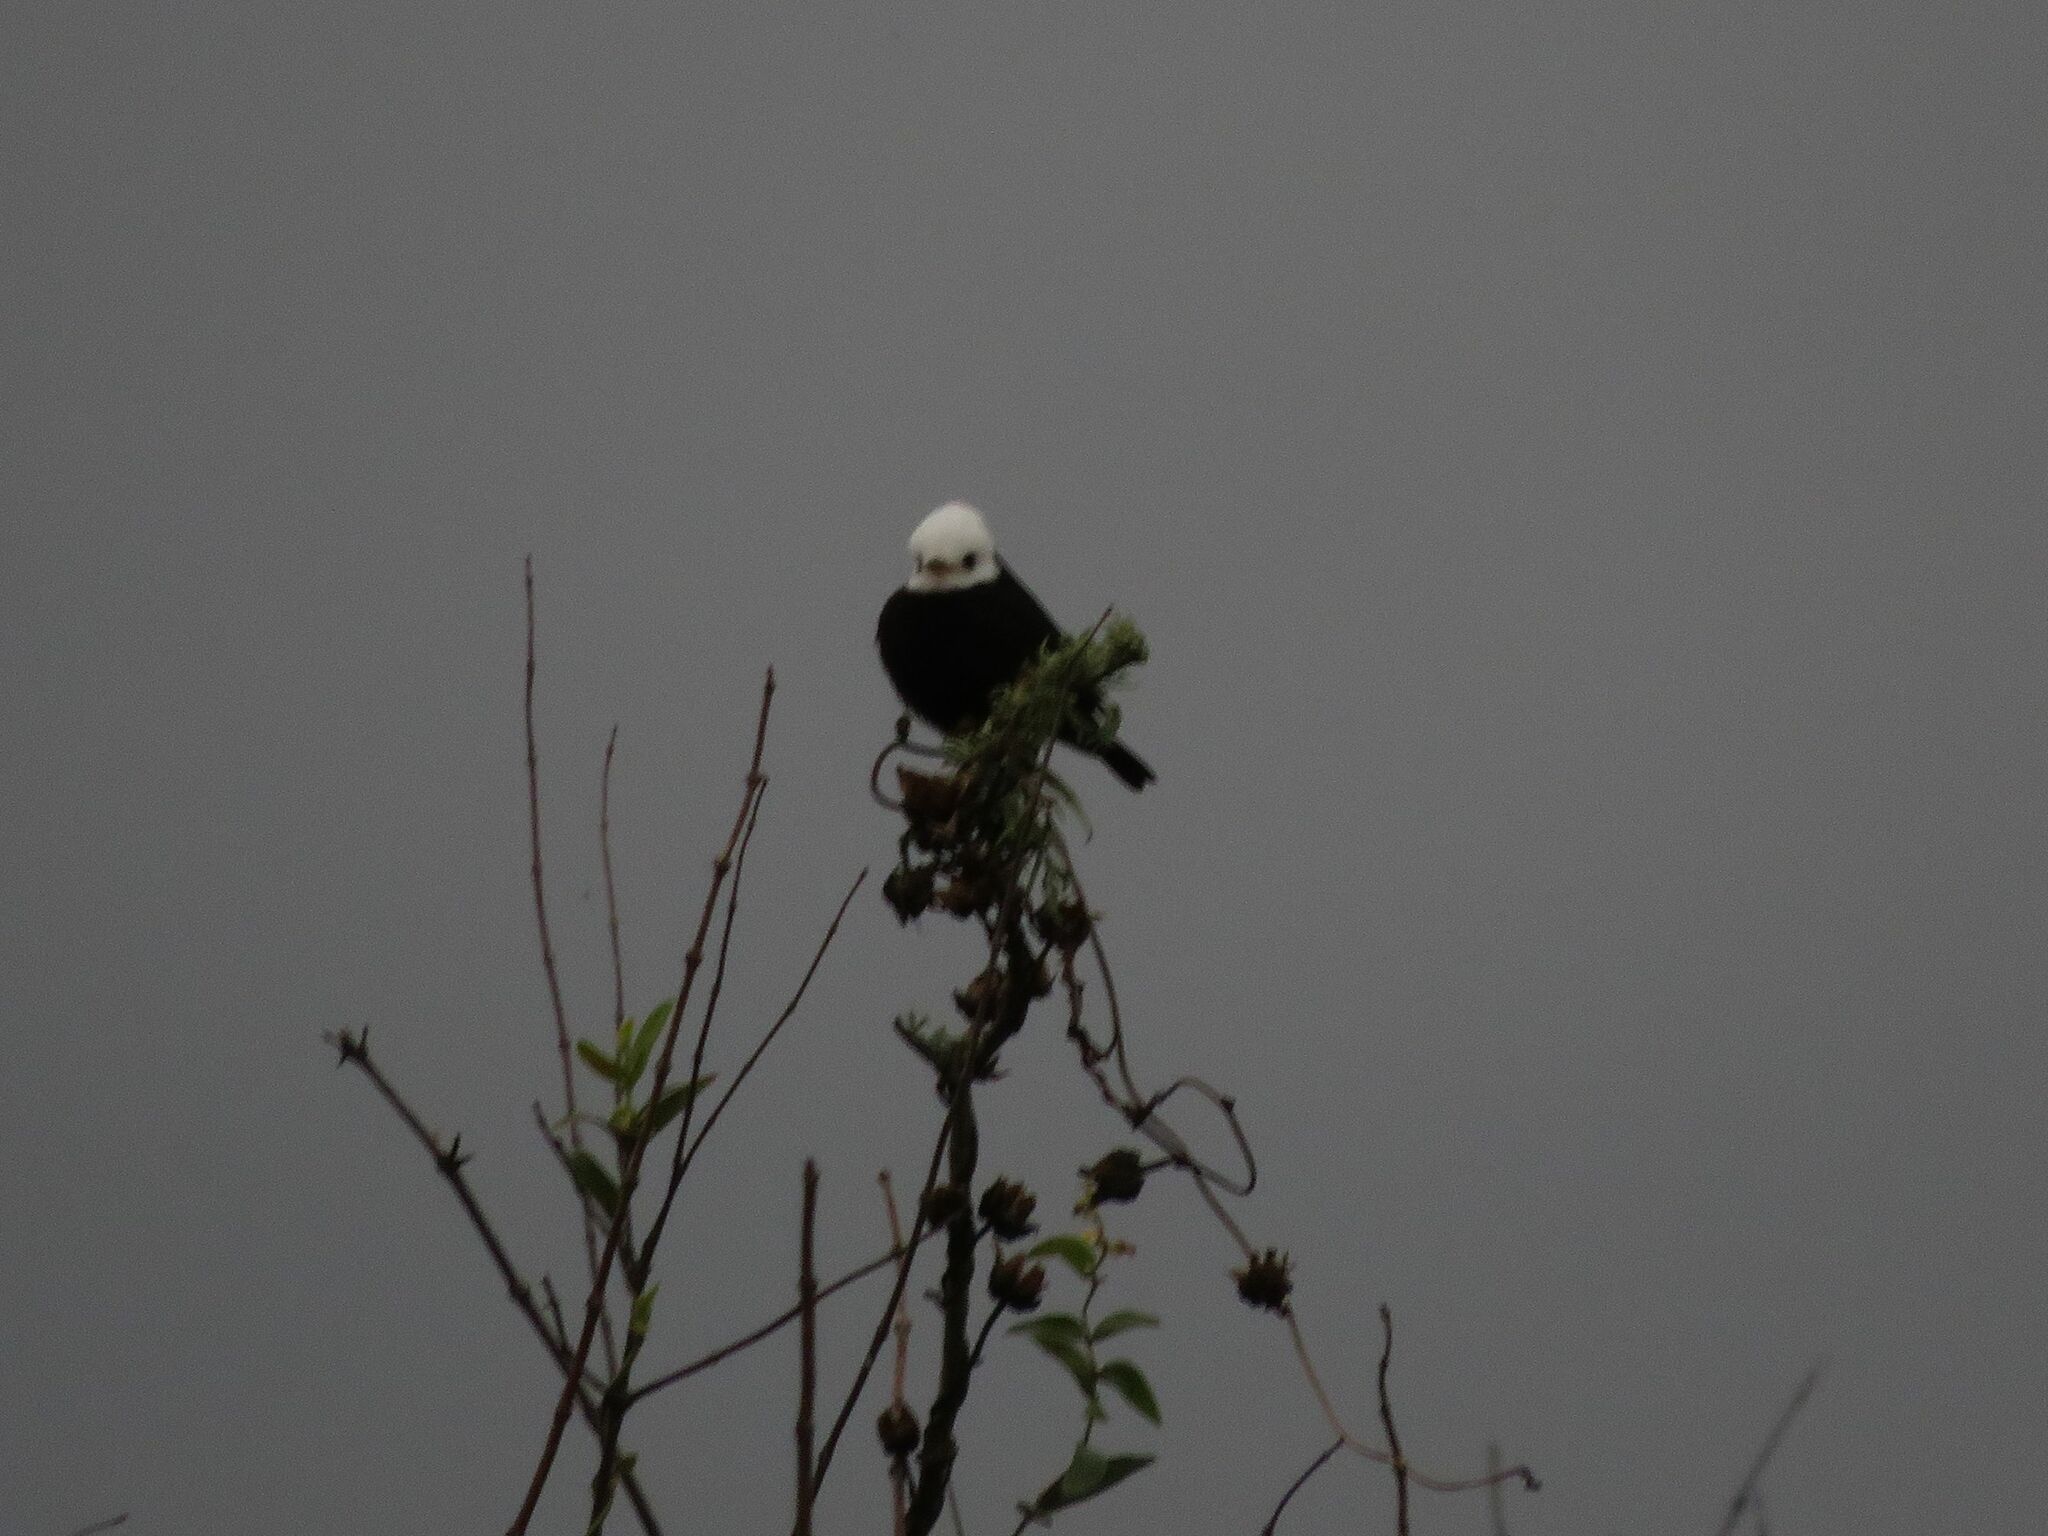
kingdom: Animalia
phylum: Chordata
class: Aves
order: Passeriformes
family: Tyrannidae
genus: Arundinicola
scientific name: Arundinicola leucocephala
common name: White-headed marsh tyrant
